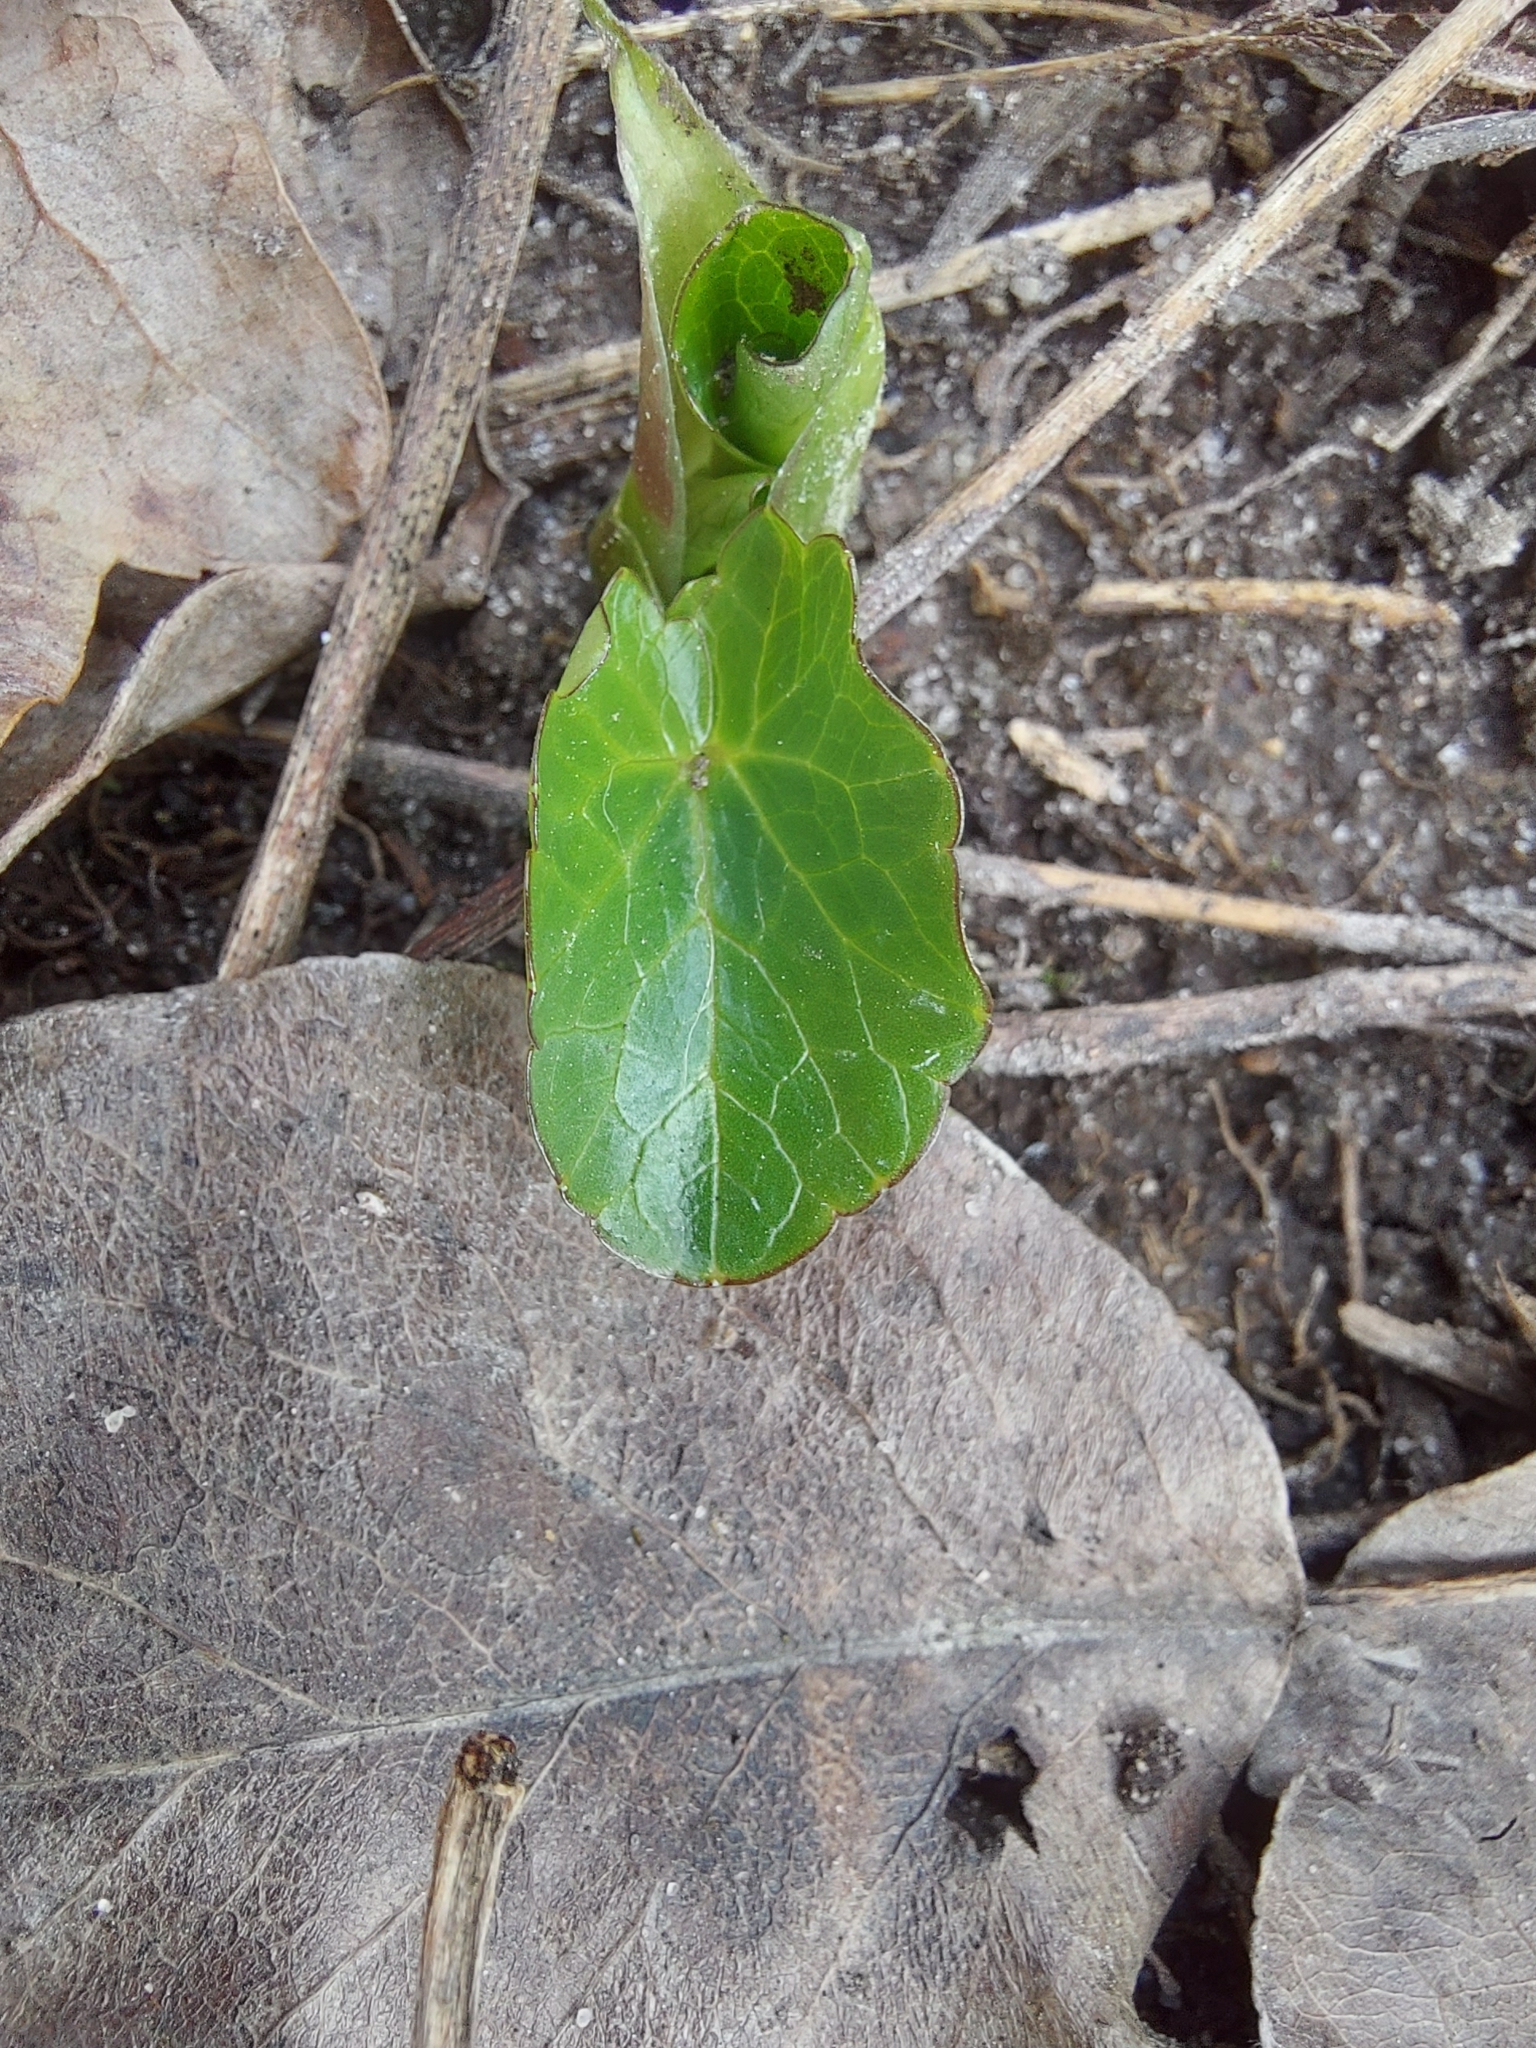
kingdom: Plantae
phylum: Tracheophyta
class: Magnoliopsida
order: Ranunculales
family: Ranunculaceae
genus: Ficaria
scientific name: Ficaria verna
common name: Lesser celandine
